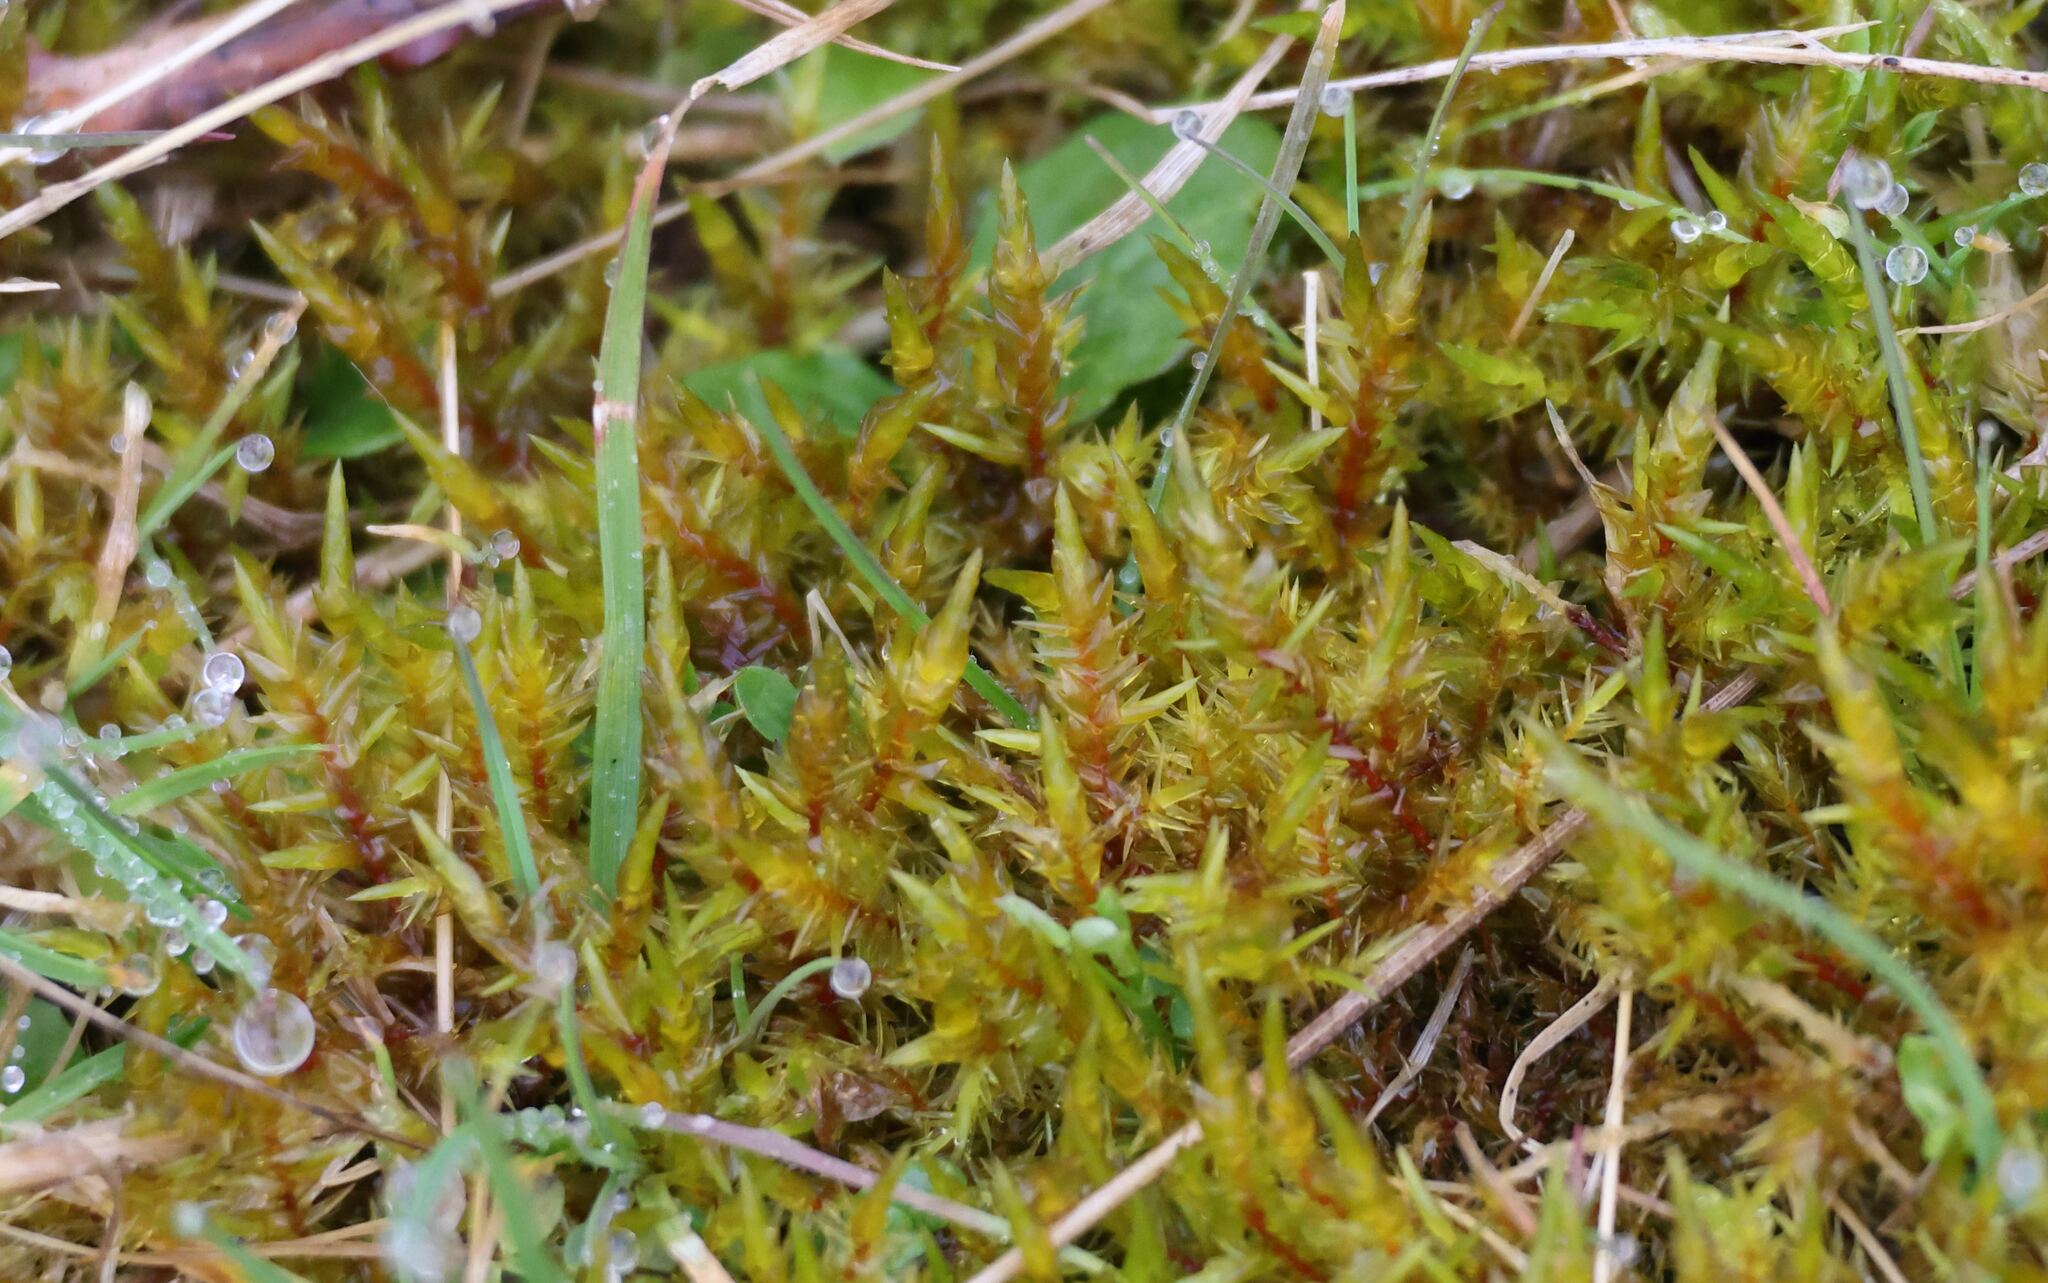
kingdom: Plantae
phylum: Bryophyta
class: Bryopsida
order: Hypnales
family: Pylaisiaceae
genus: Calliergonella
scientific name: Calliergonella cuspidata
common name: Common large wetland moss
